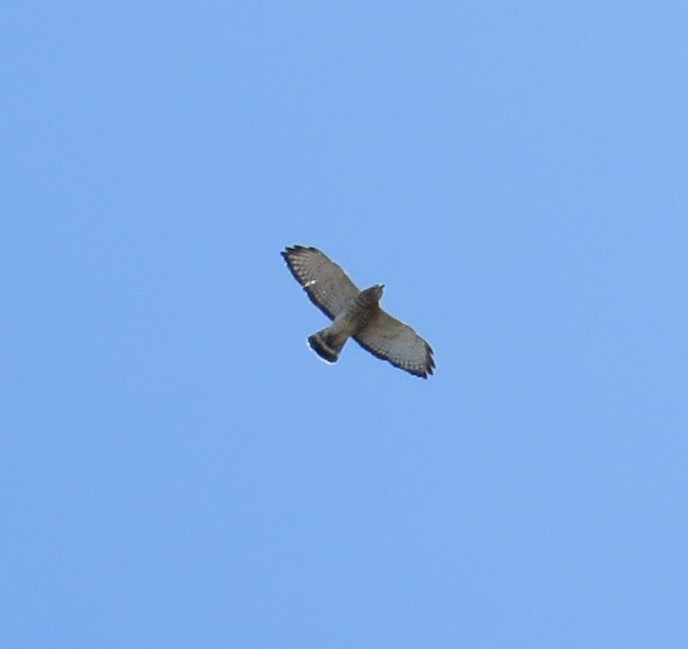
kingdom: Animalia
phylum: Chordata
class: Aves
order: Accipitriformes
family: Accipitridae
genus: Buteo
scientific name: Buteo platypterus
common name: Broad-winged hawk
